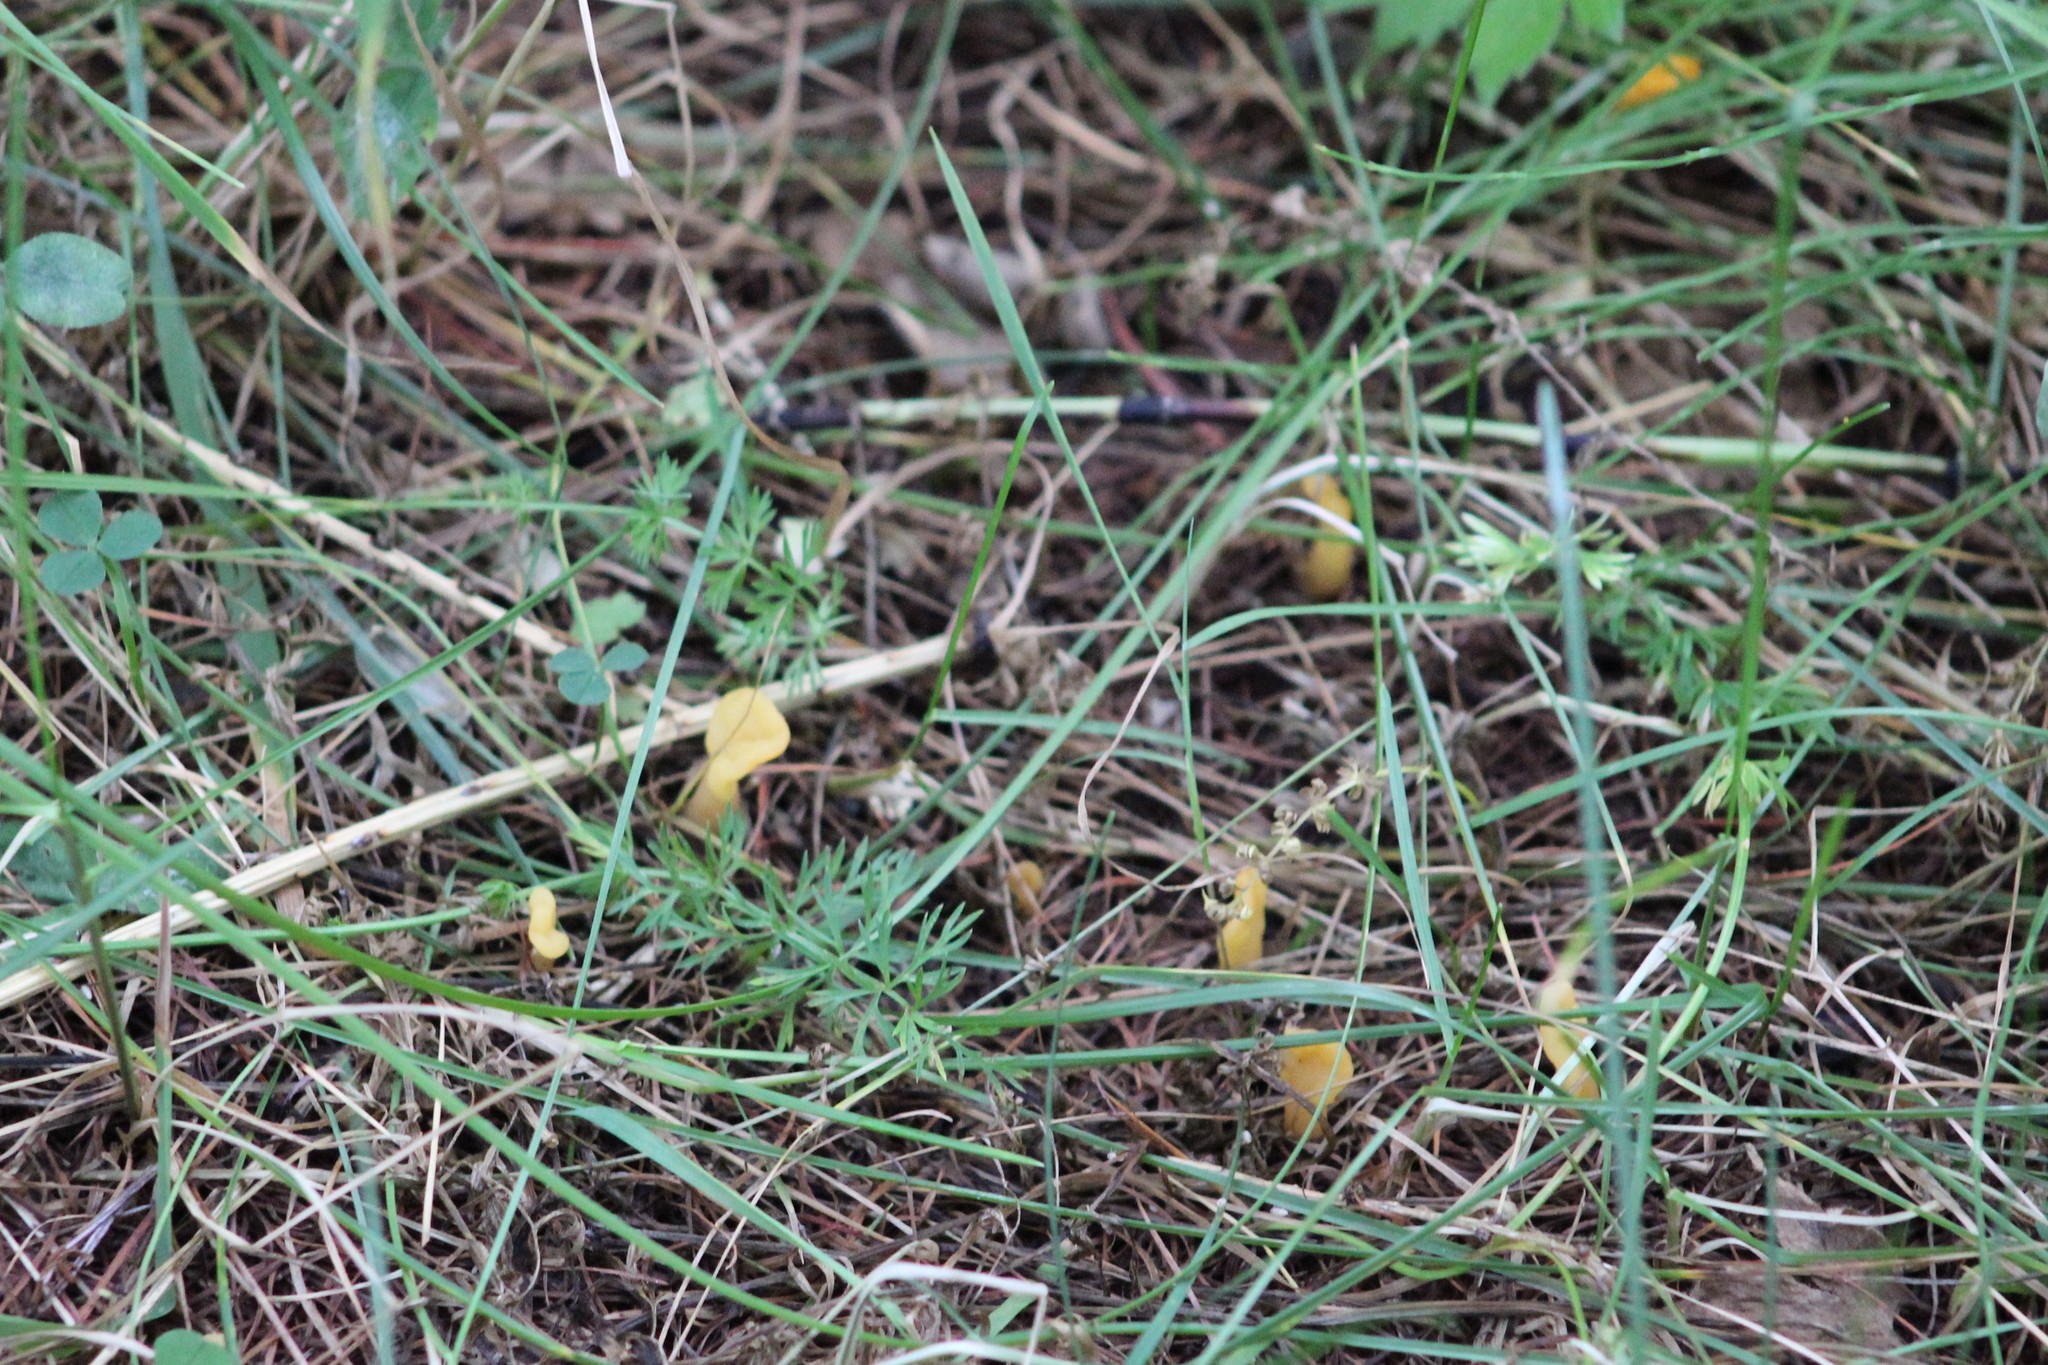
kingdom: Fungi
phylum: Ascomycota
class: Leotiomycetes
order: Rhytismatales
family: Cudoniaceae
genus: Spathularia
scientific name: Spathularia rufa
